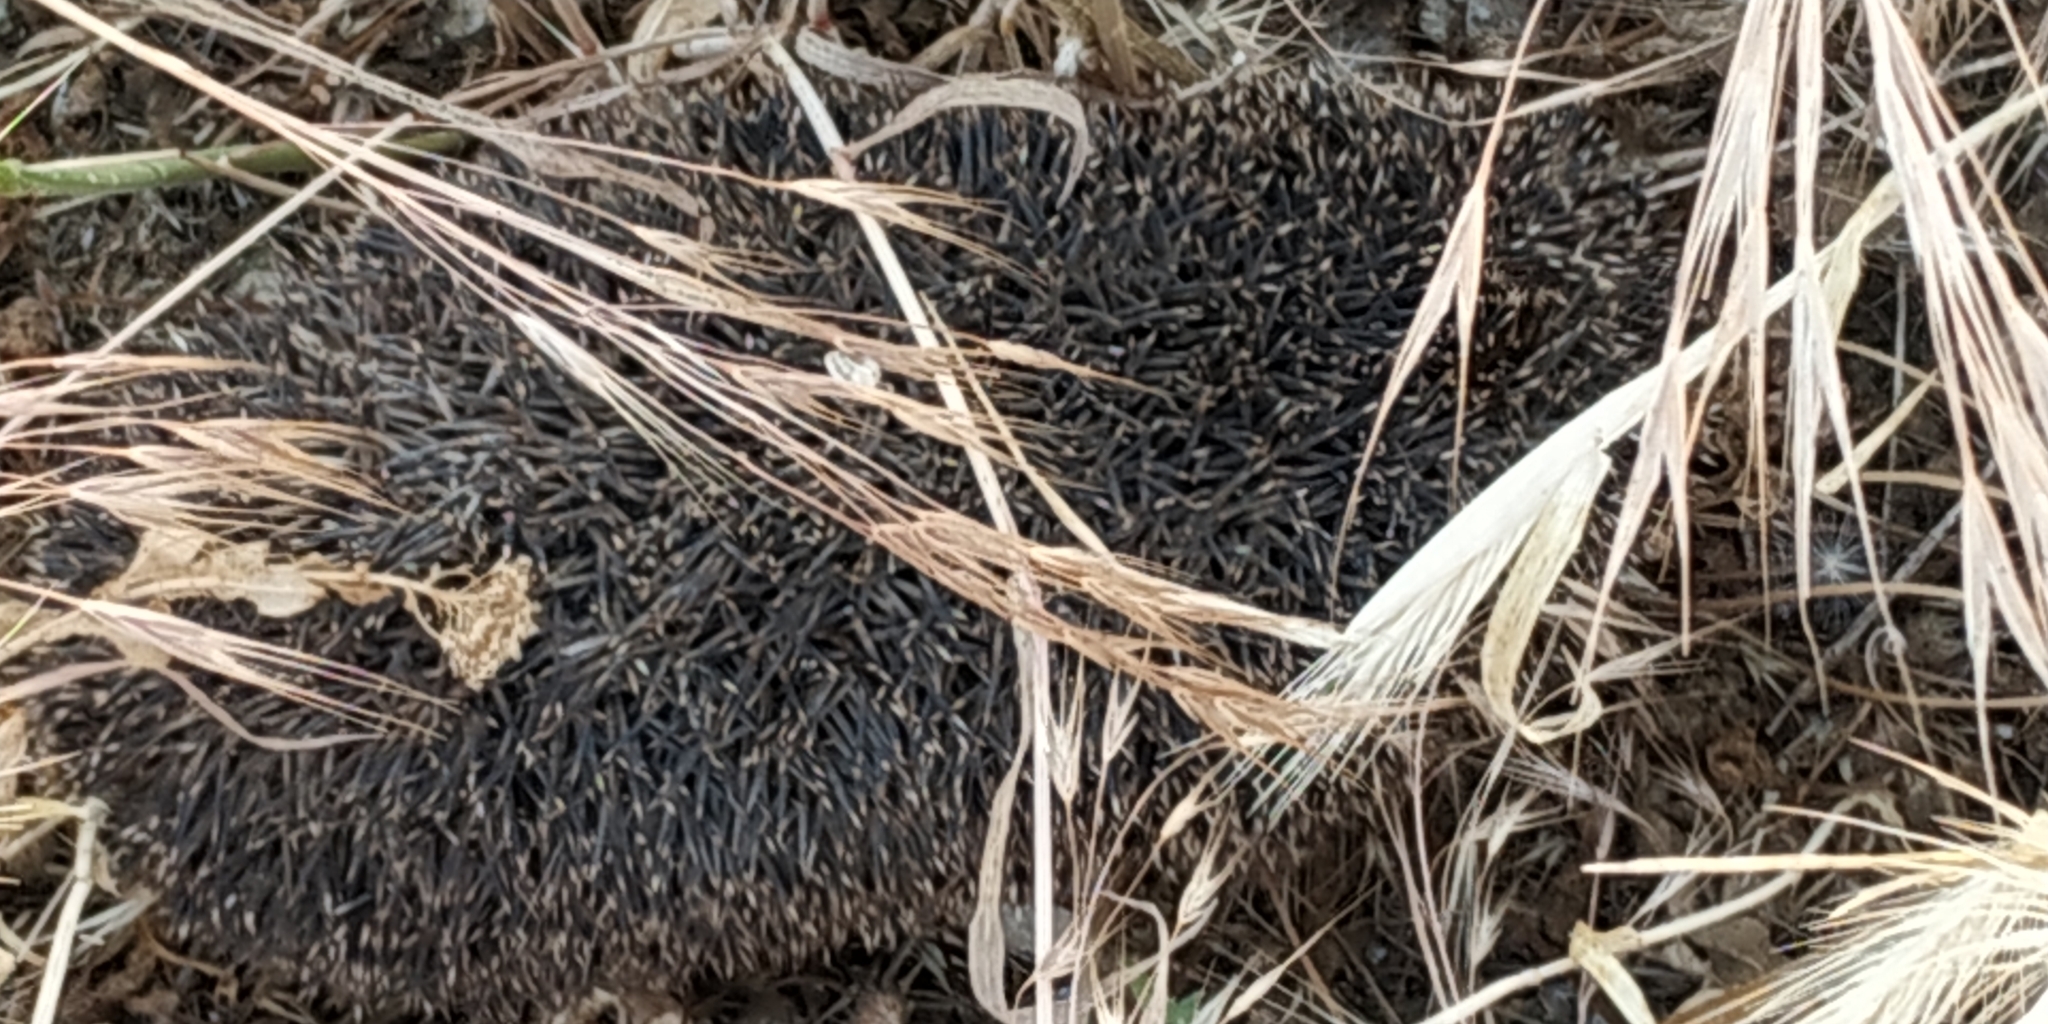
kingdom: Animalia
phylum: Chordata
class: Mammalia
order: Erinaceomorpha
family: Erinaceidae
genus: Erinaceus
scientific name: Erinaceus roumanicus
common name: Northern white-breasted hedgehog
